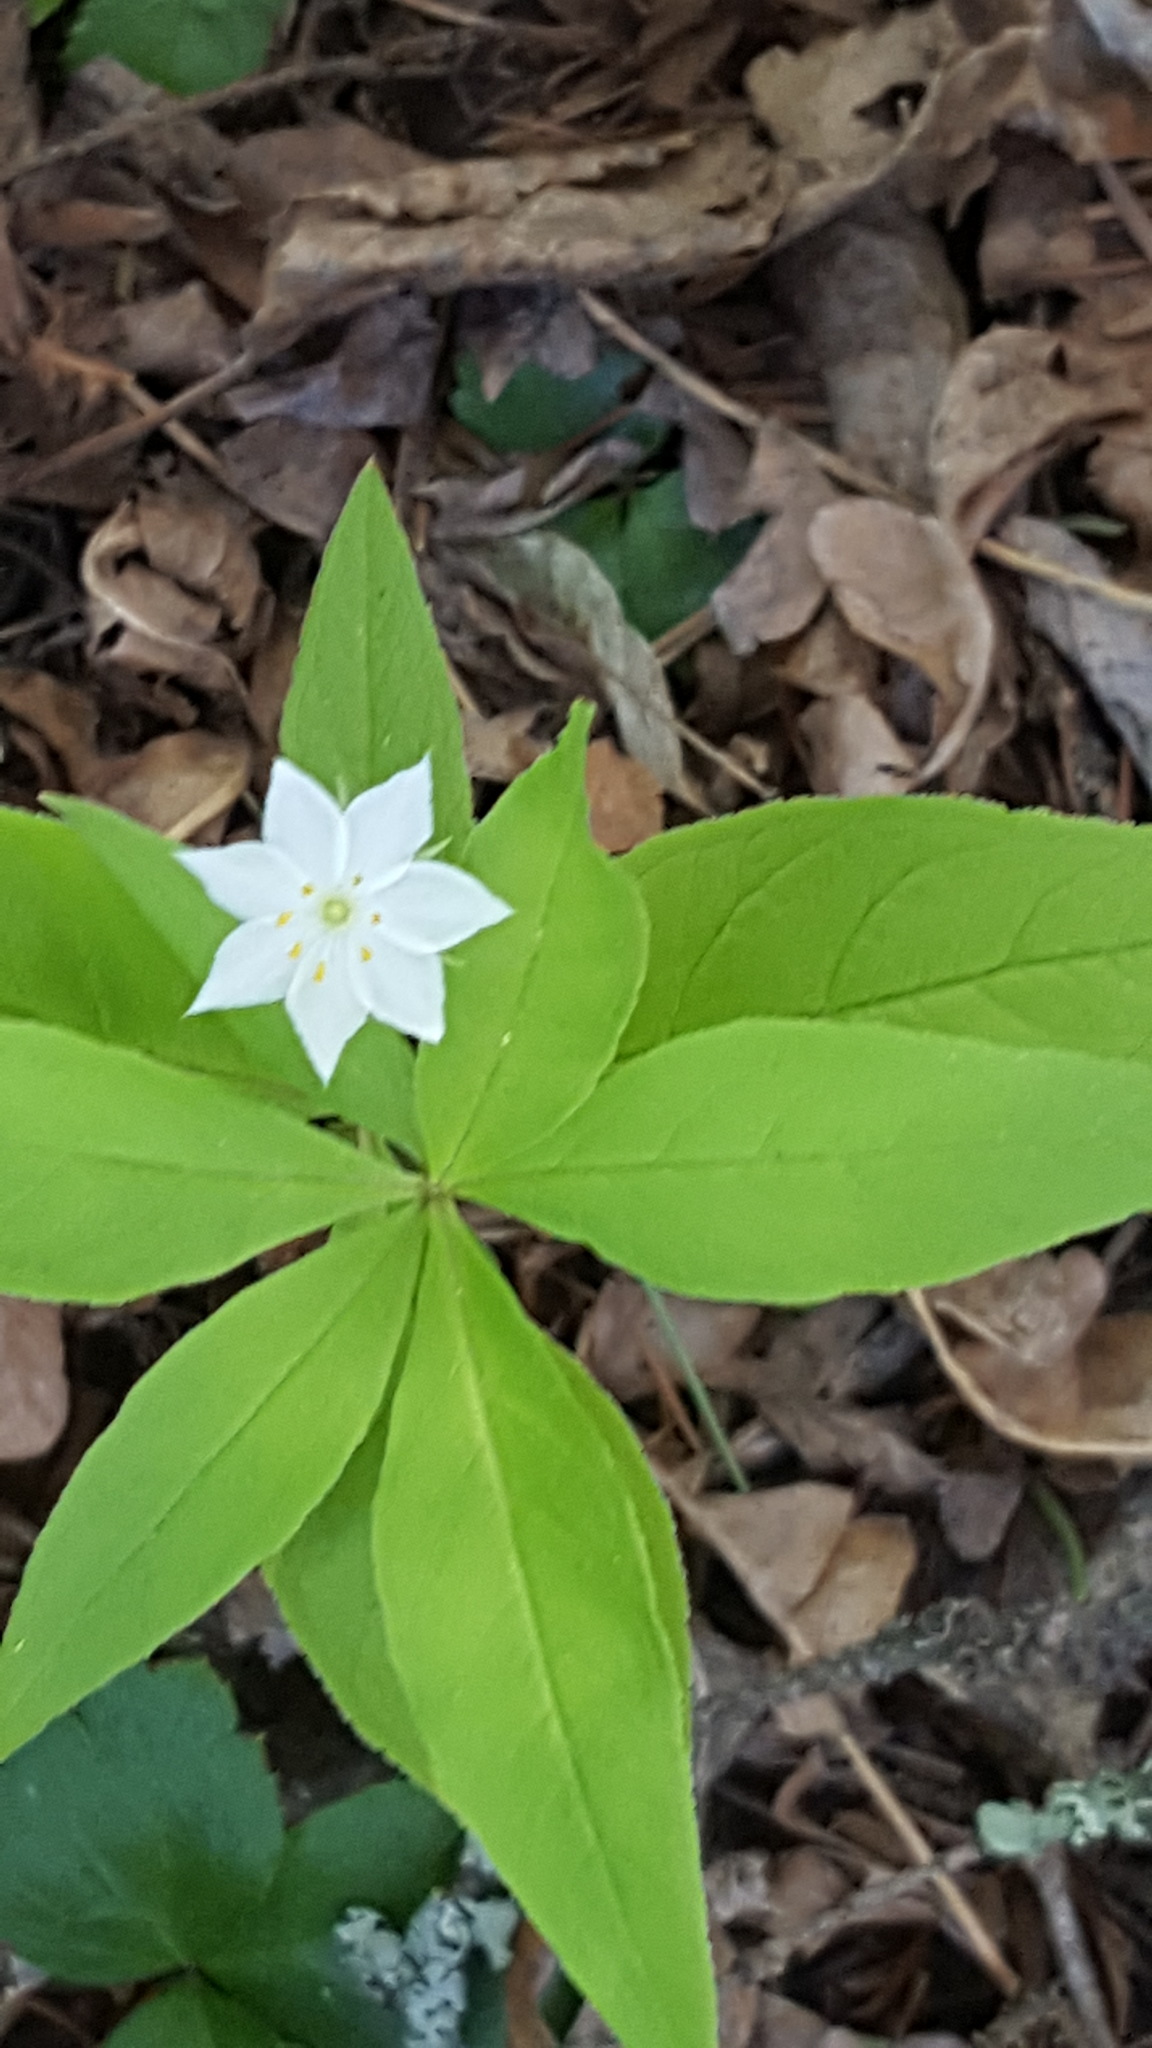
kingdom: Plantae
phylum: Tracheophyta
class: Magnoliopsida
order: Ericales
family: Primulaceae
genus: Lysimachia
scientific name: Lysimachia borealis
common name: American starflower
